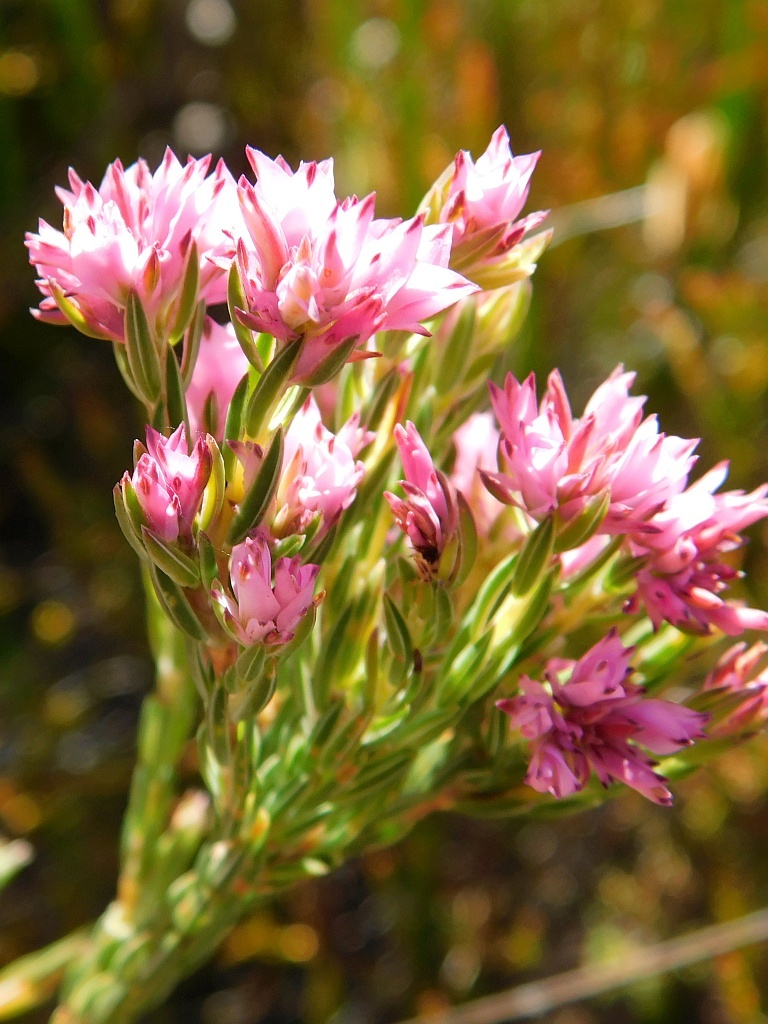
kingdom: Plantae
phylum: Tracheophyta
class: Magnoliopsida
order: Ericales
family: Ericaceae
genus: Erica
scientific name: Erica corifolia
